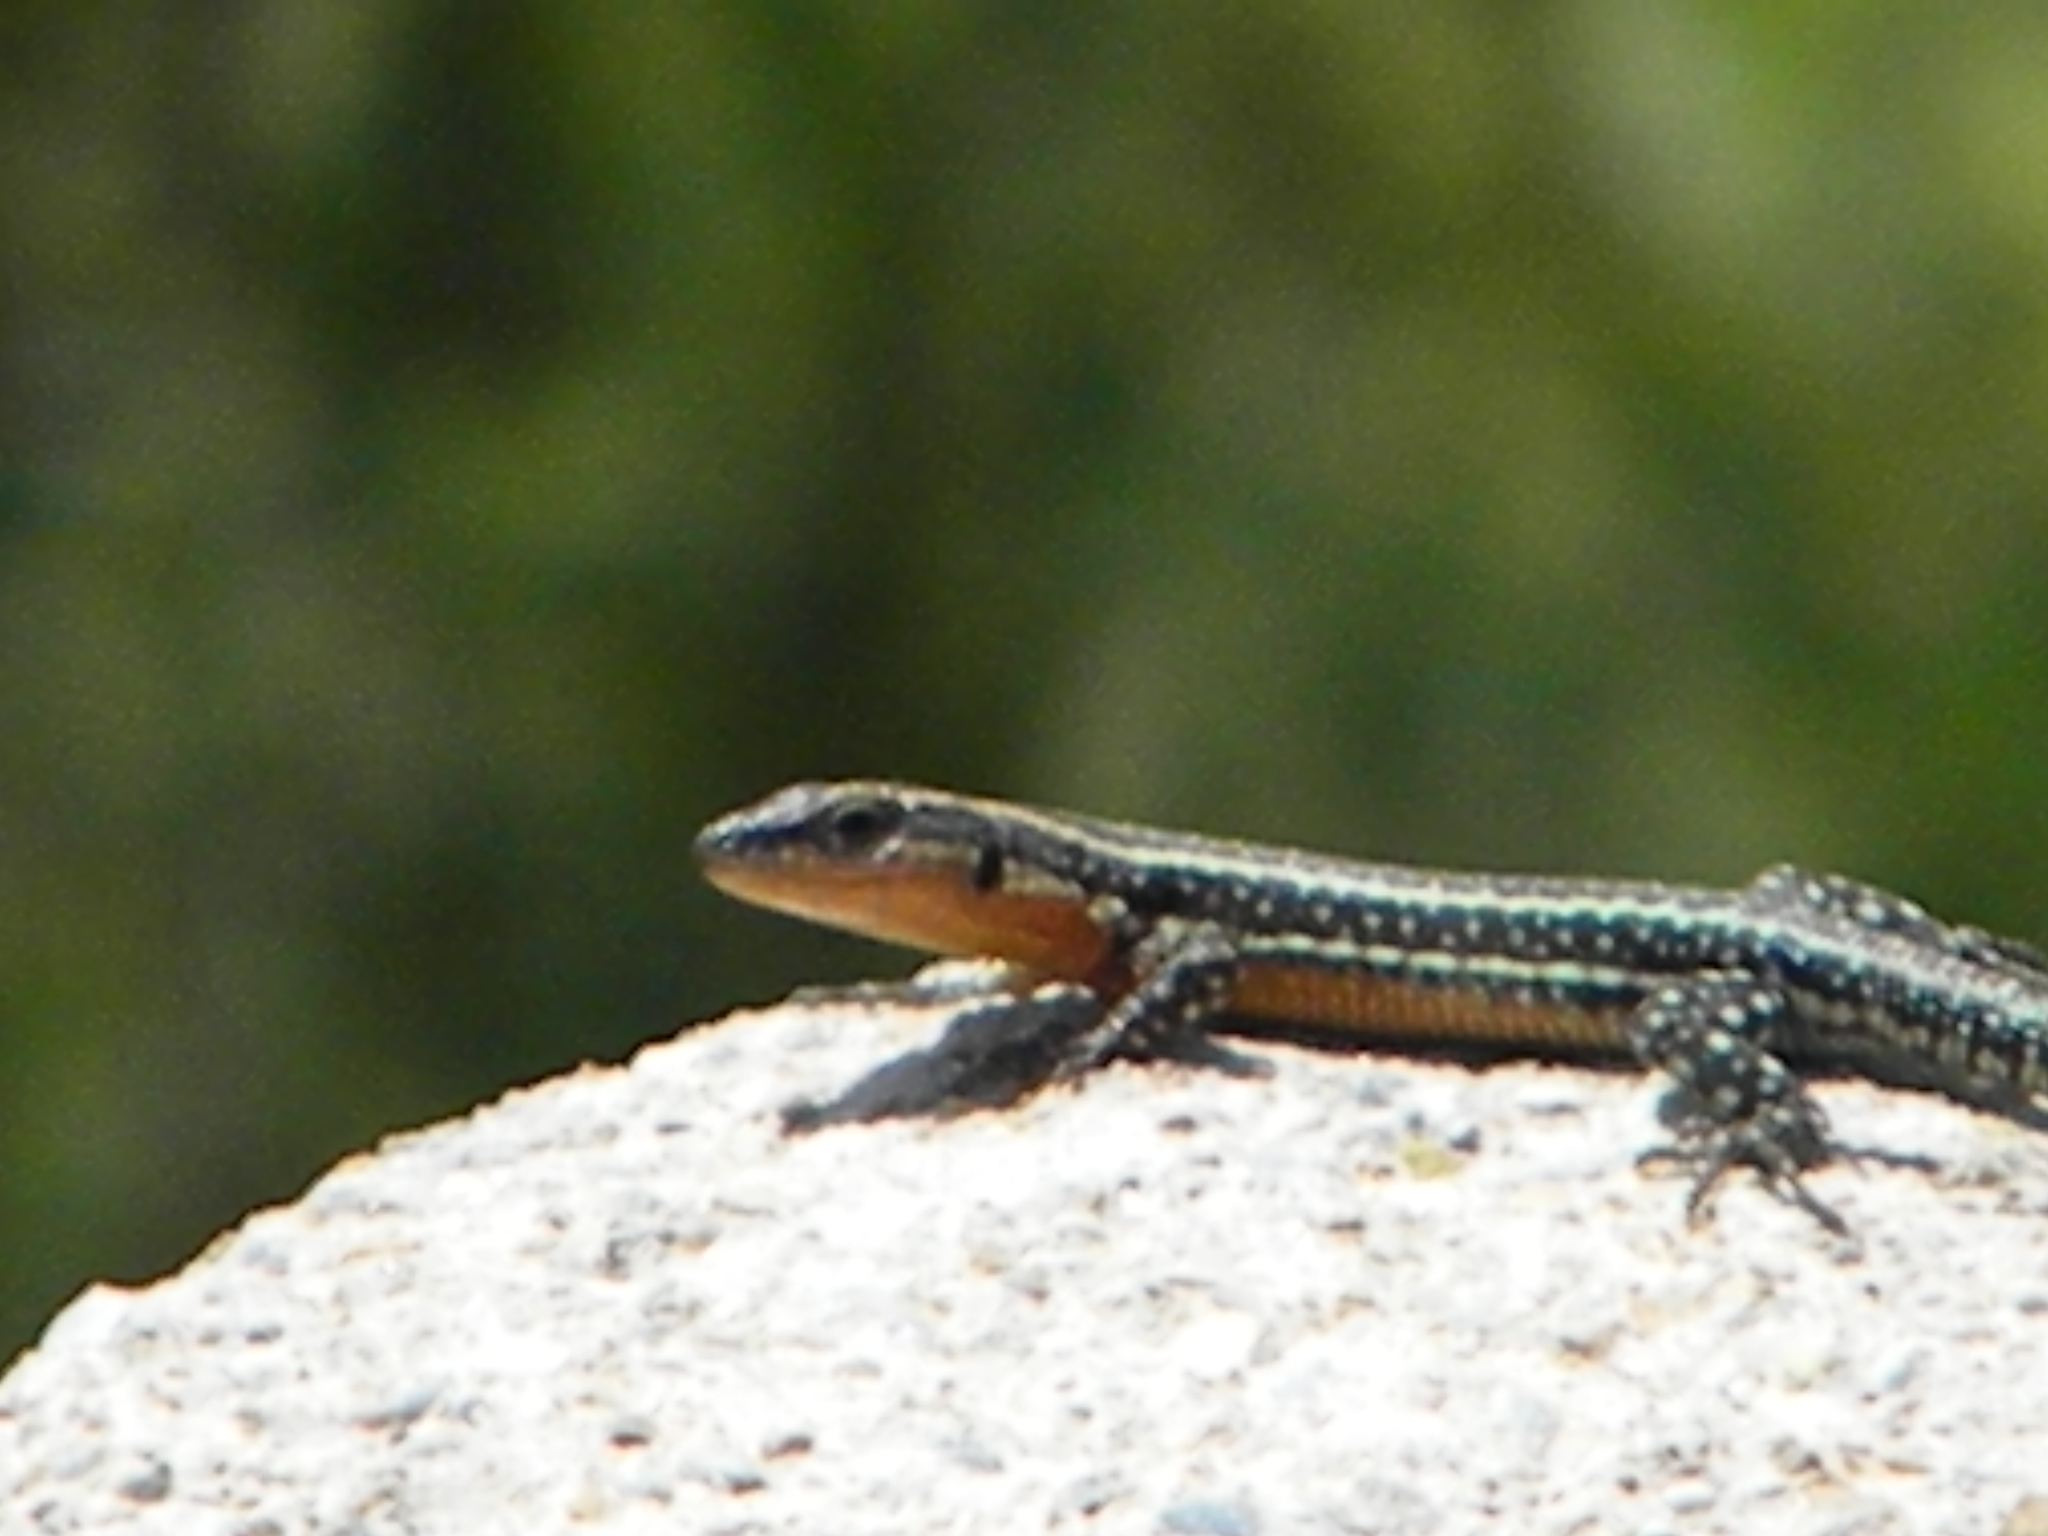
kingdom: Animalia
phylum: Chordata
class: Squamata
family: Lacertidae
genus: Anatololacerta
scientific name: Anatololacerta anatolica
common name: Anatolian rock lizard
